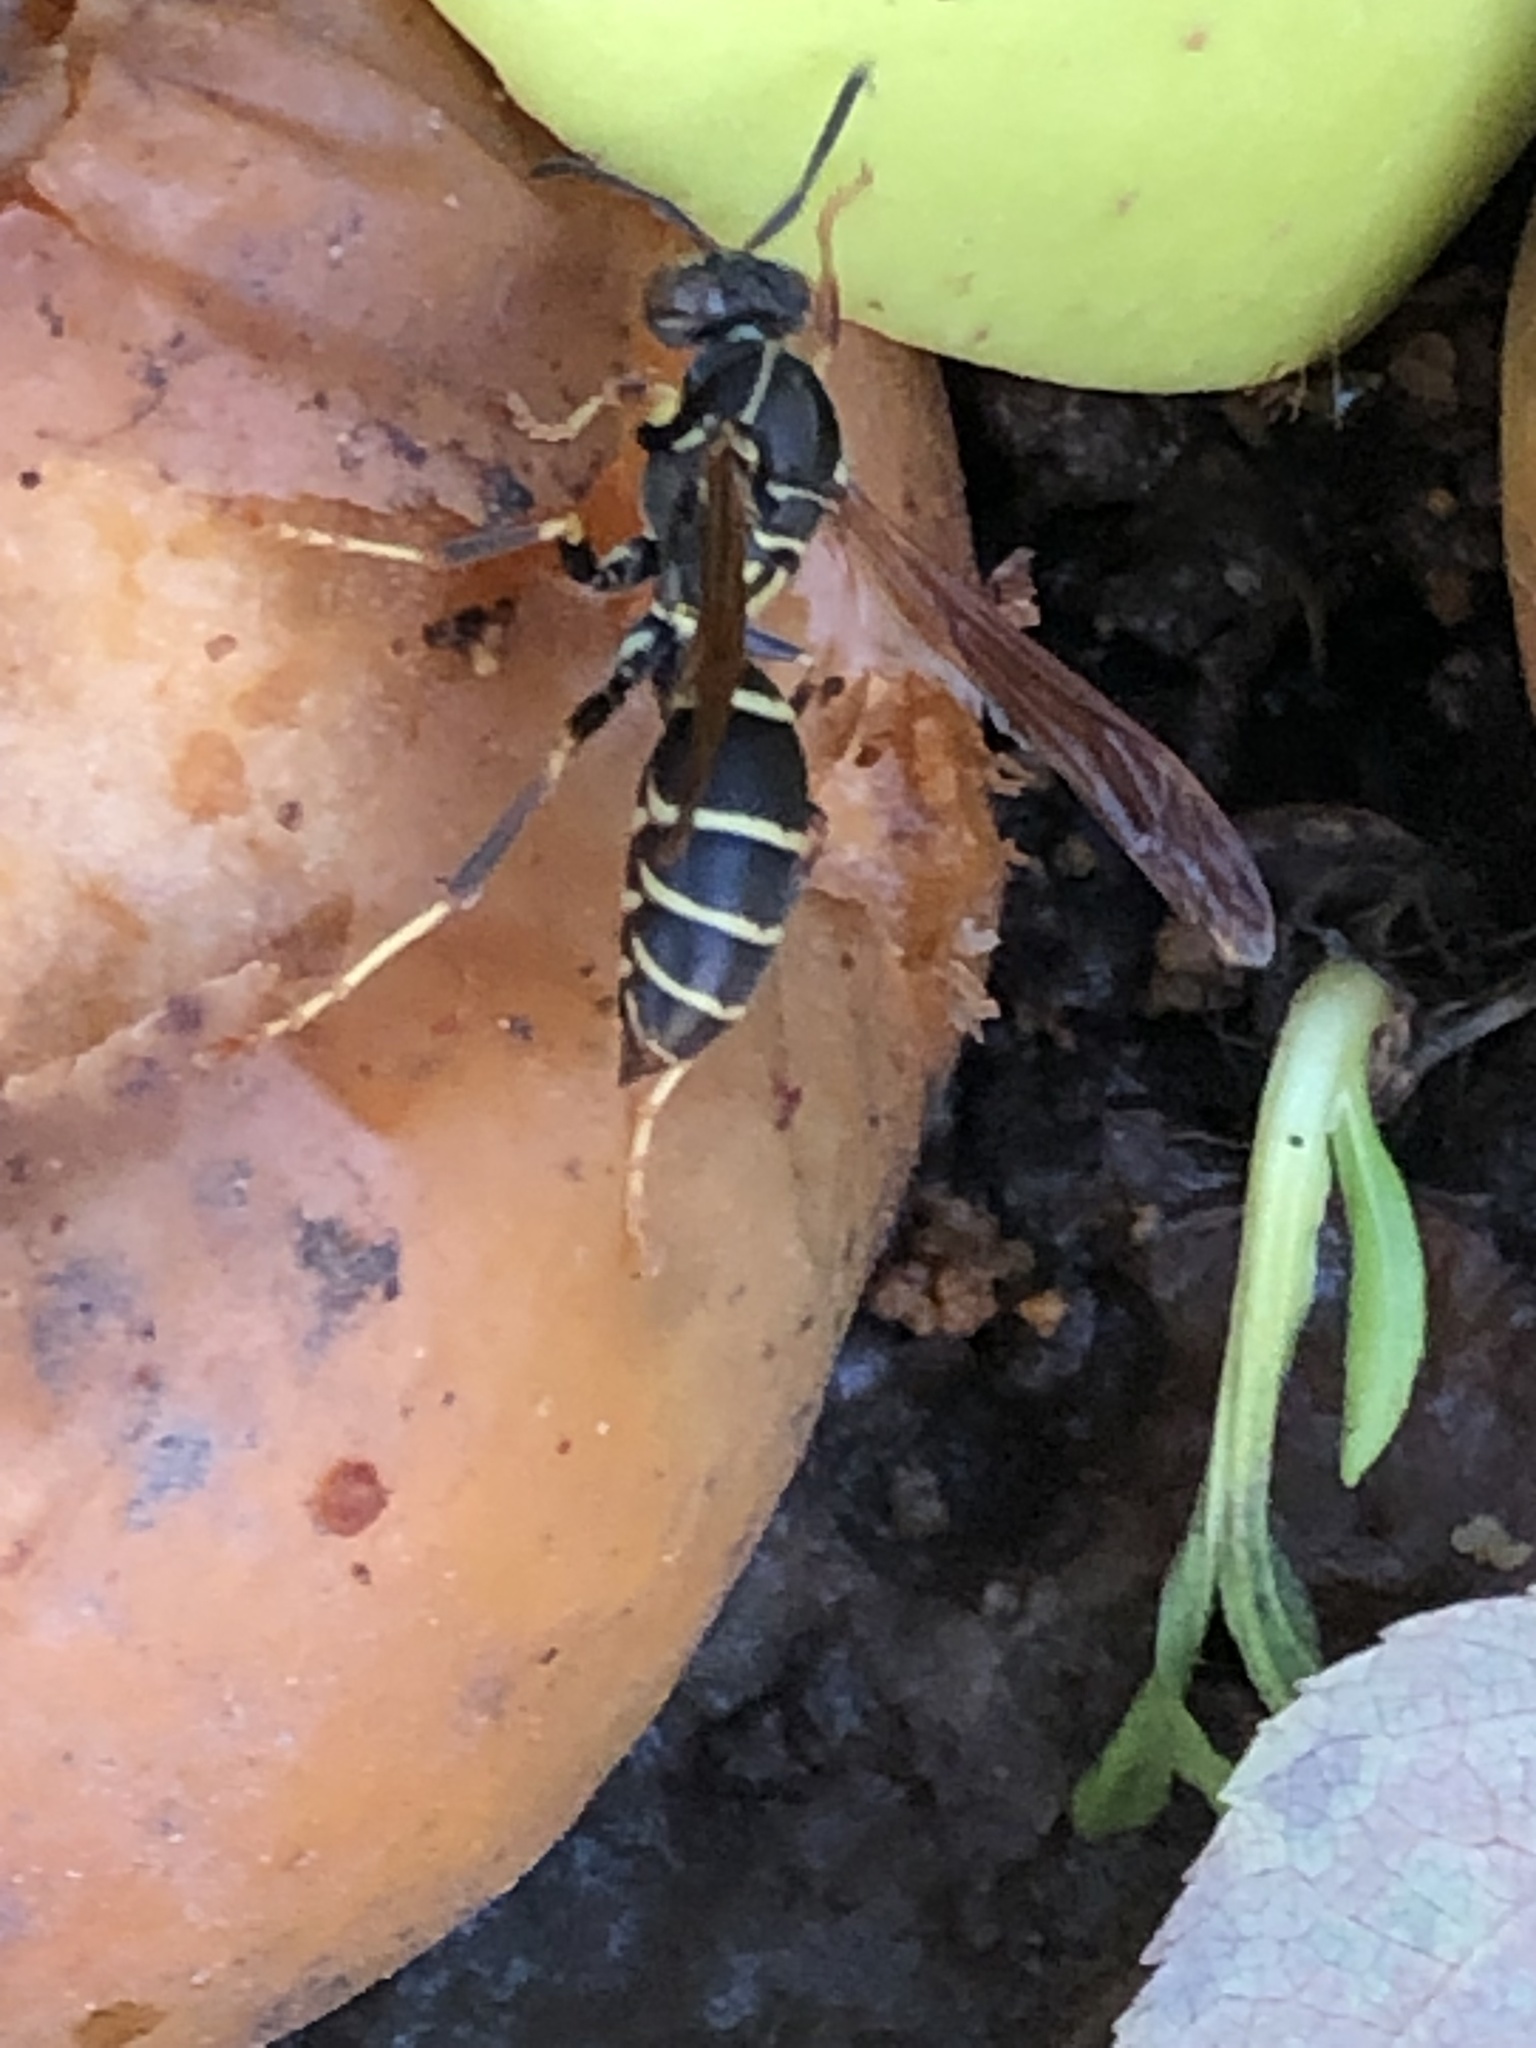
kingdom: Animalia
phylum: Arthropoda
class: Insecta
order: Hymenoptera
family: Eumenidae
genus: Polistes
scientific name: Polistes fuscatus
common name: Dark paper wasp
